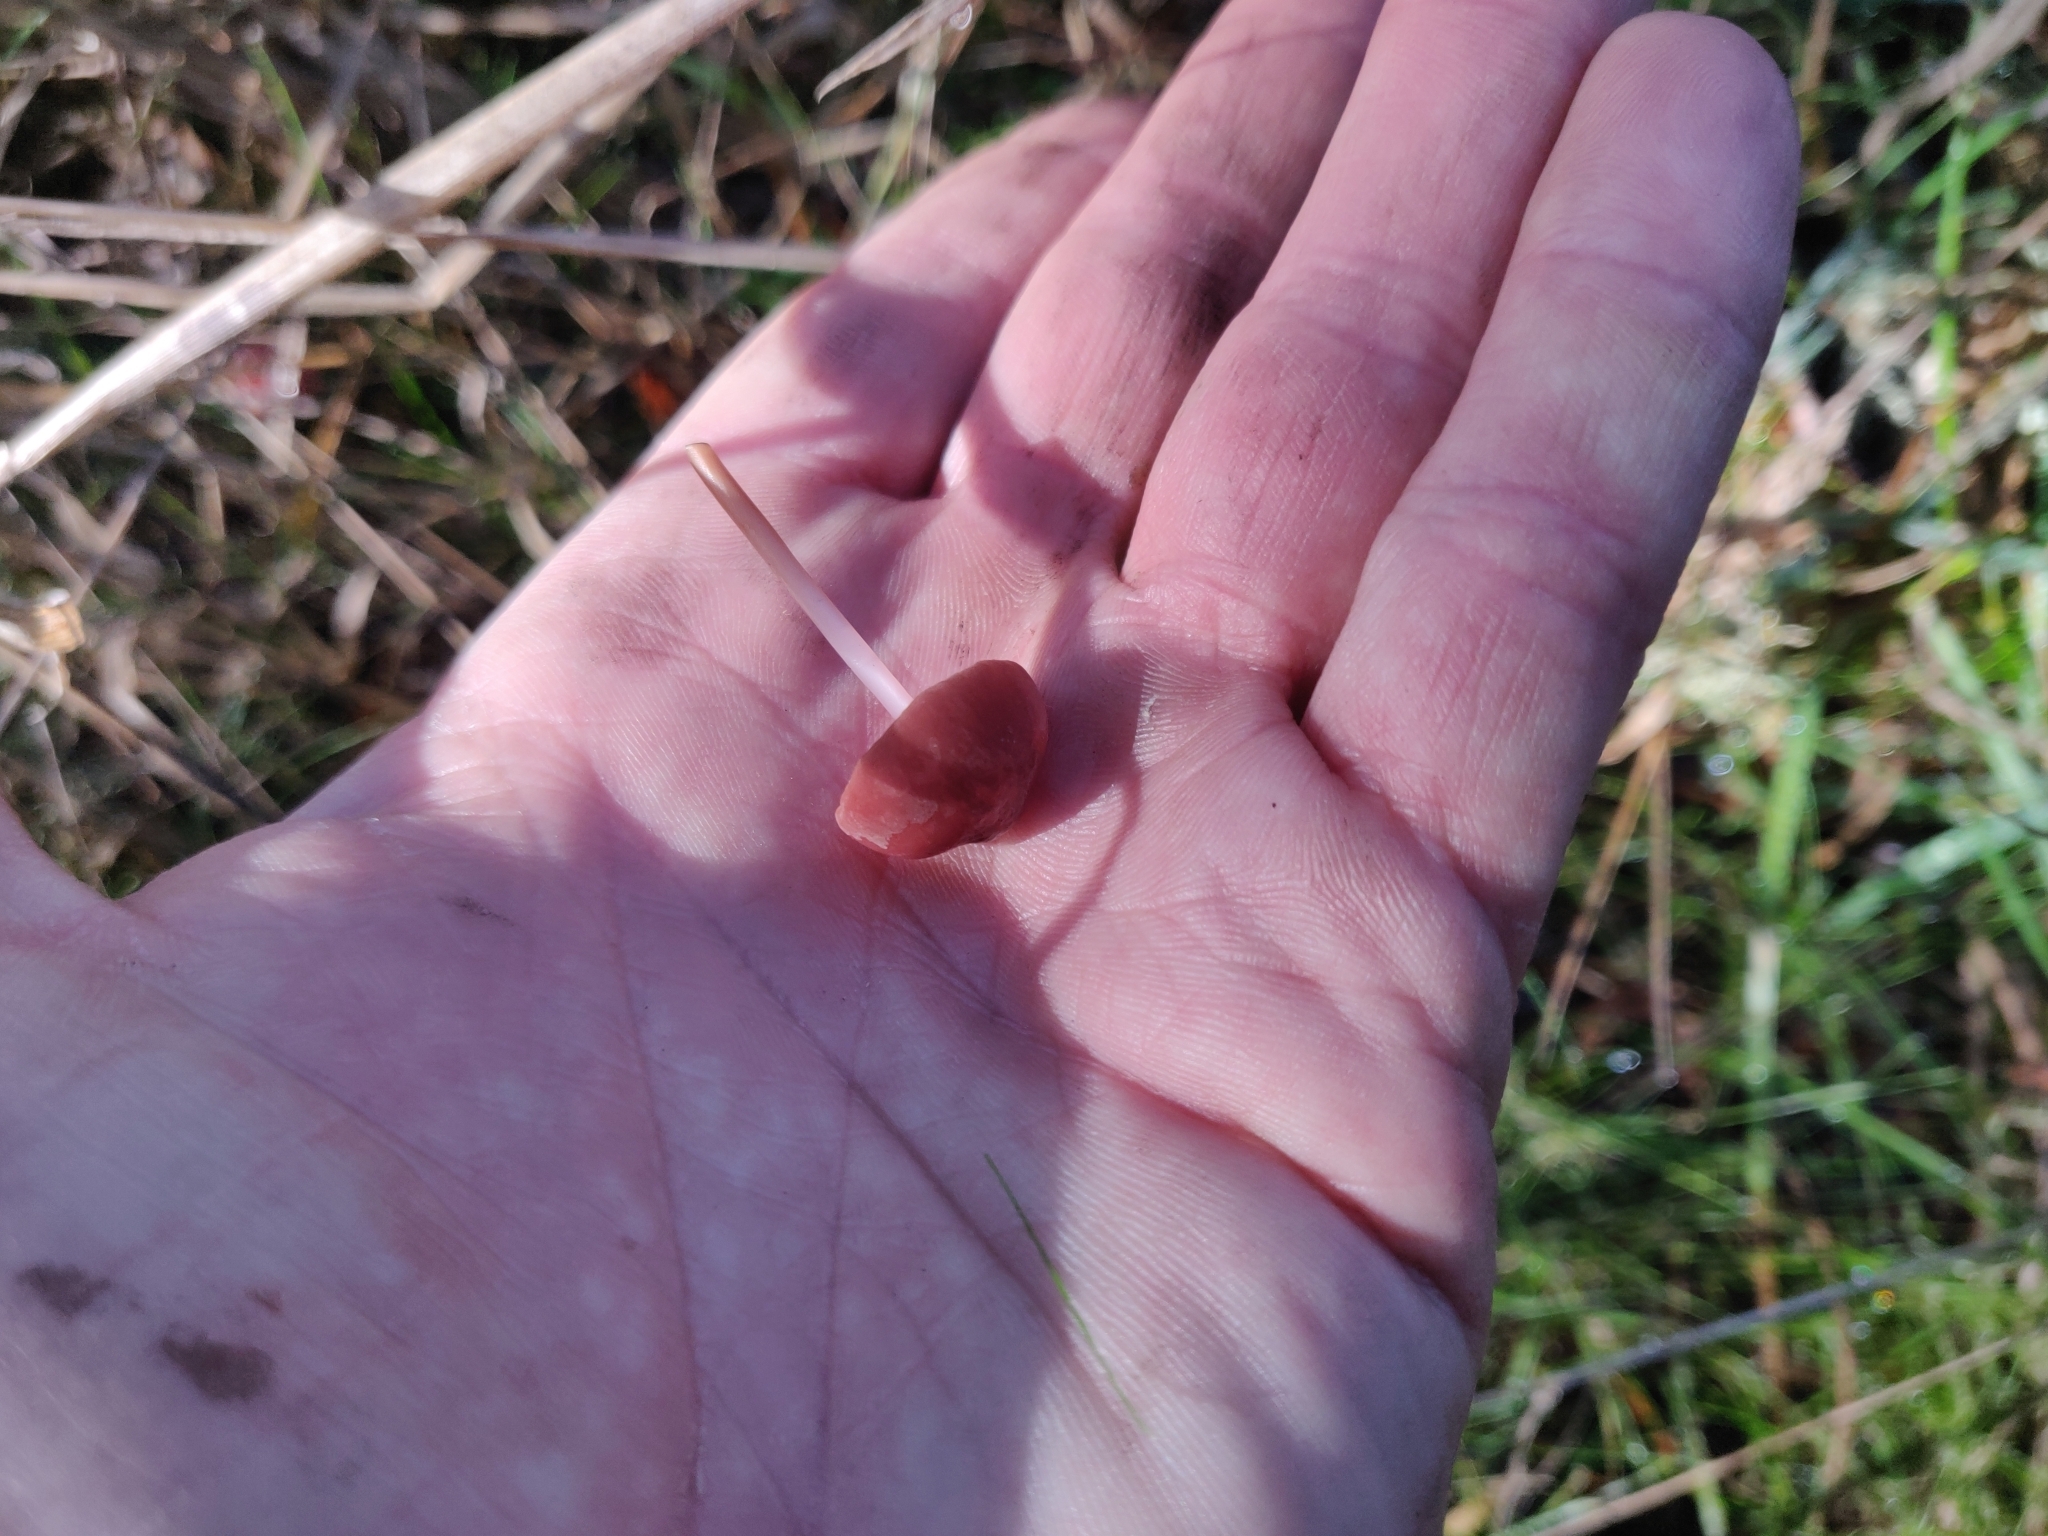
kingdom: Fungi
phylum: Basidiomycota
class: Agaricomycetes
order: Agaricales
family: Marasmiaceae
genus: Marasmius
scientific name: Marasmius plicatulus
